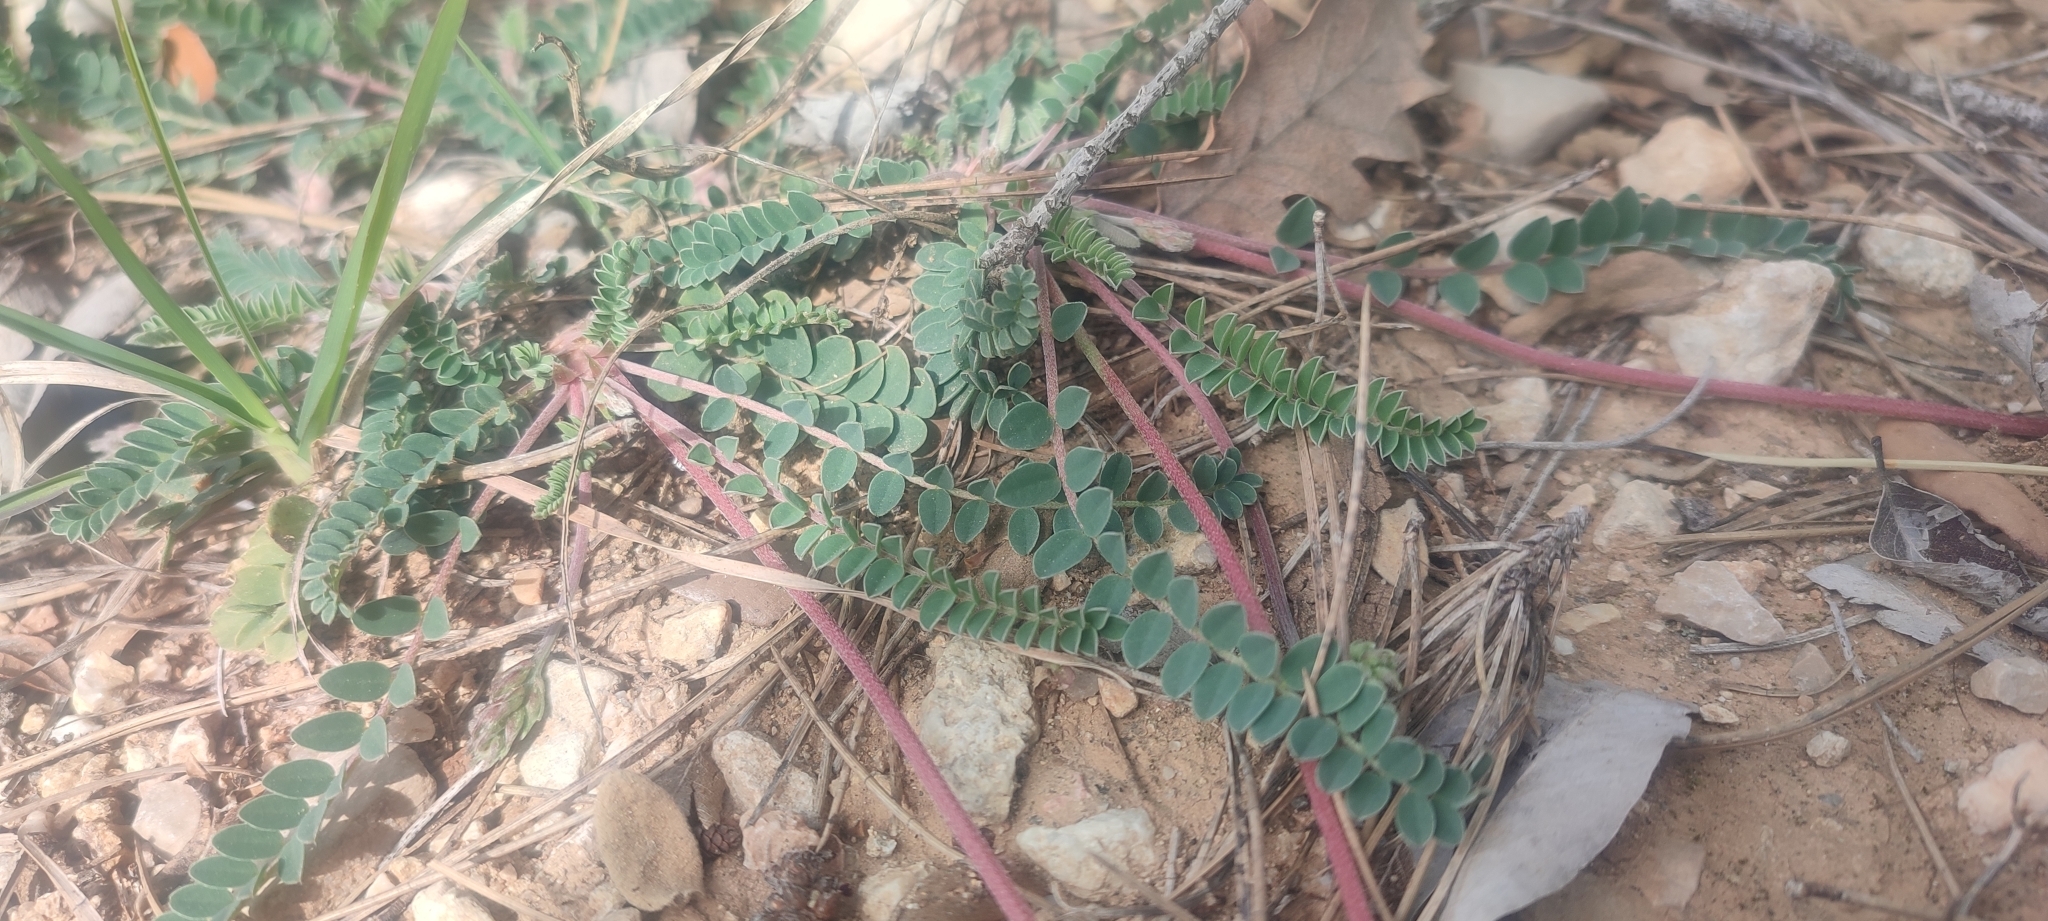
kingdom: Plantae
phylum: Tracheophyta
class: Magnoliopsida
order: Fabales
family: Fabaceae
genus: Astragalus
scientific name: Astragalus monspessulanus
